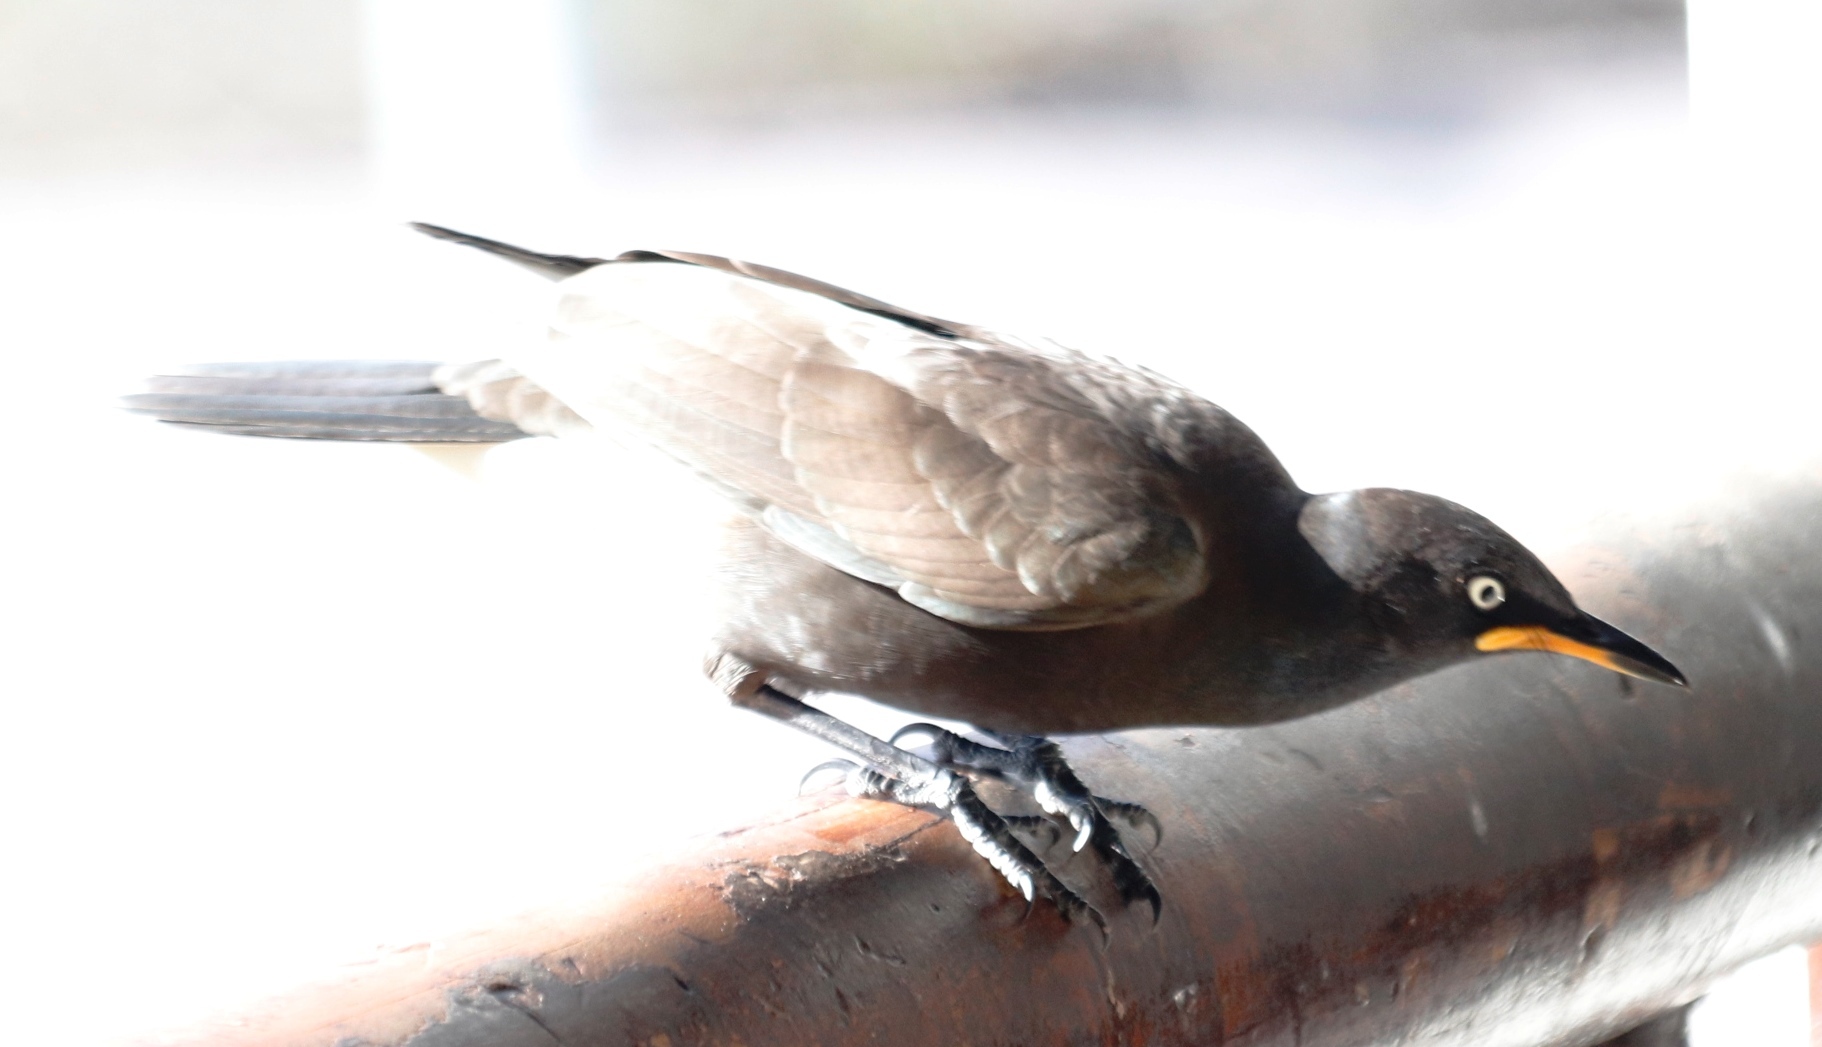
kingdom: Animalia
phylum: Chordata
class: Aves
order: Passeriformes
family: Sturnidae
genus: Lamprotornis
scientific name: Lamprotornis bicolor
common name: Pied starling
